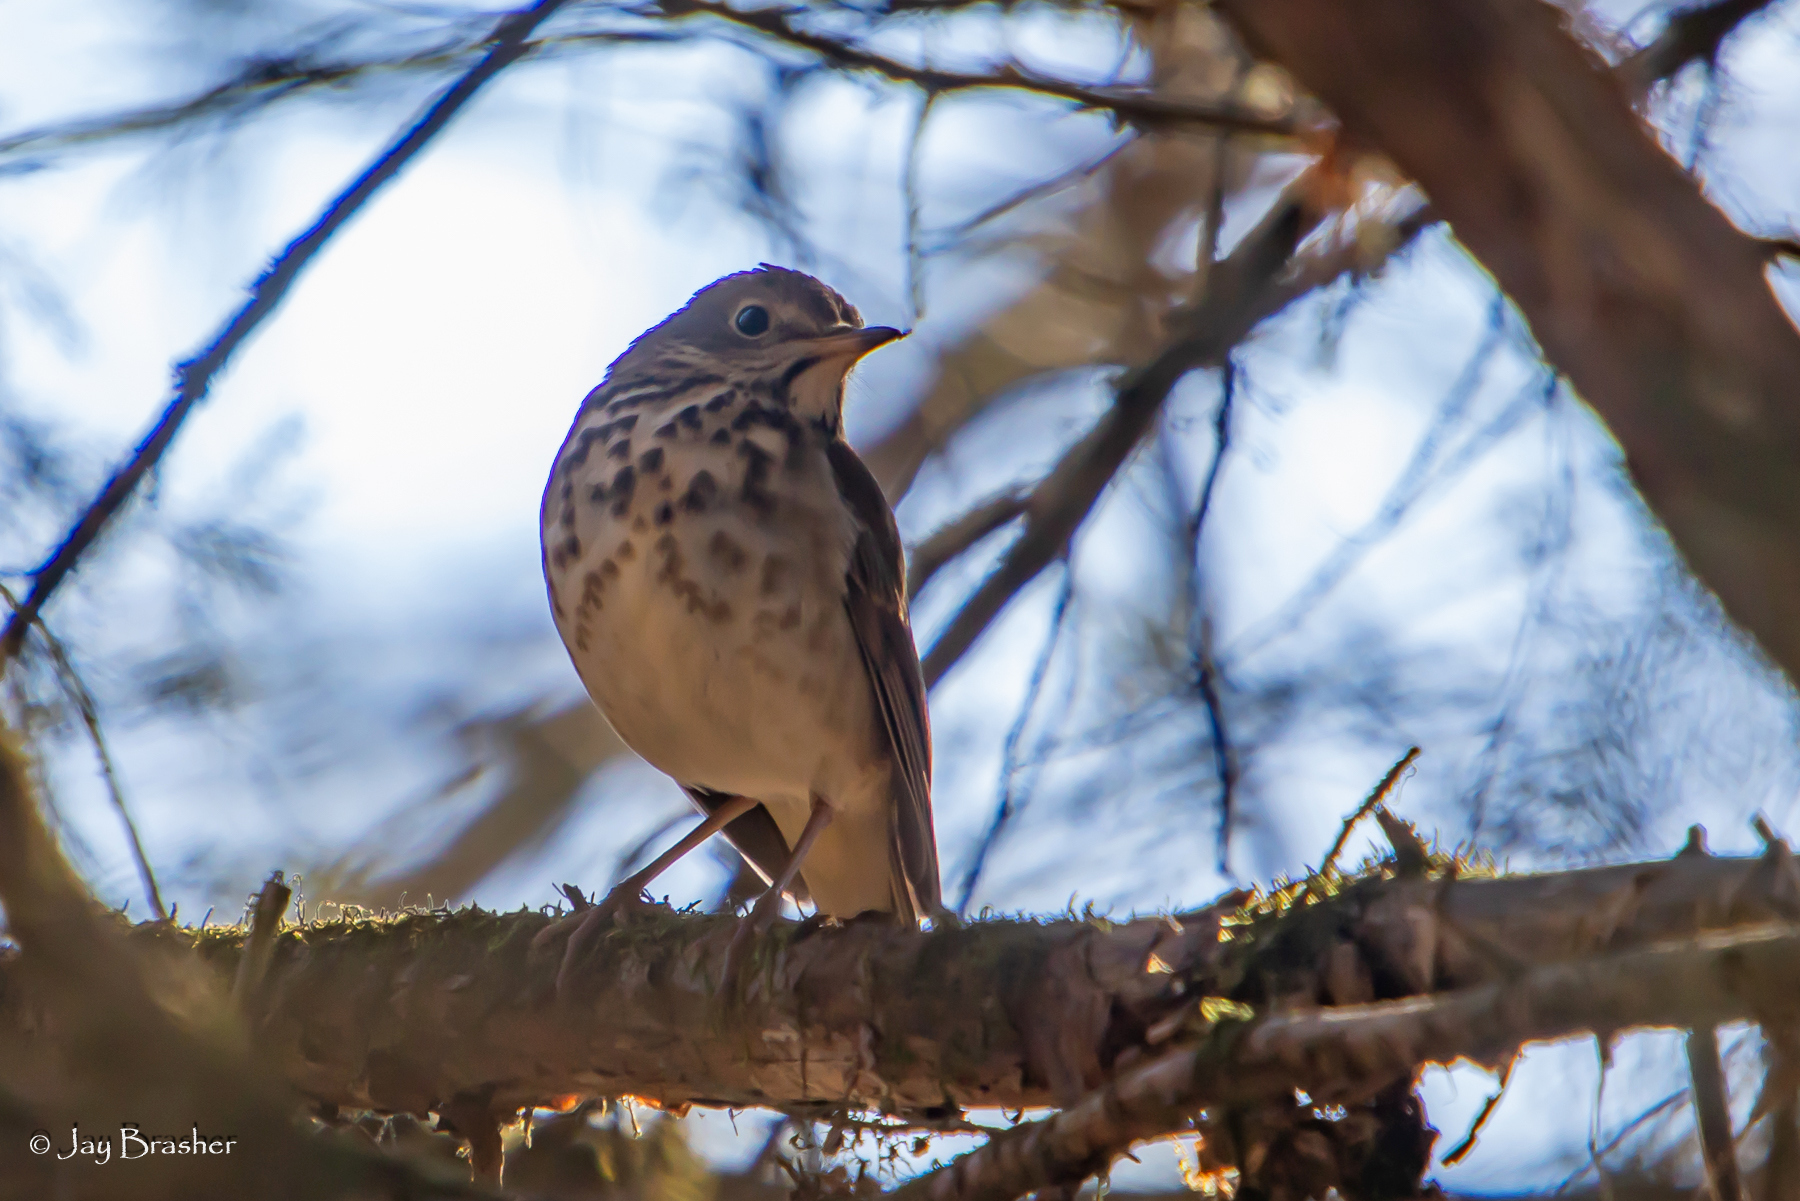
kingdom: Animalia
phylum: Chordata
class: Aves
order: Passeriformes
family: Turdidae
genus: Catharus
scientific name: Catharus guttatus
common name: Hermit thrush
